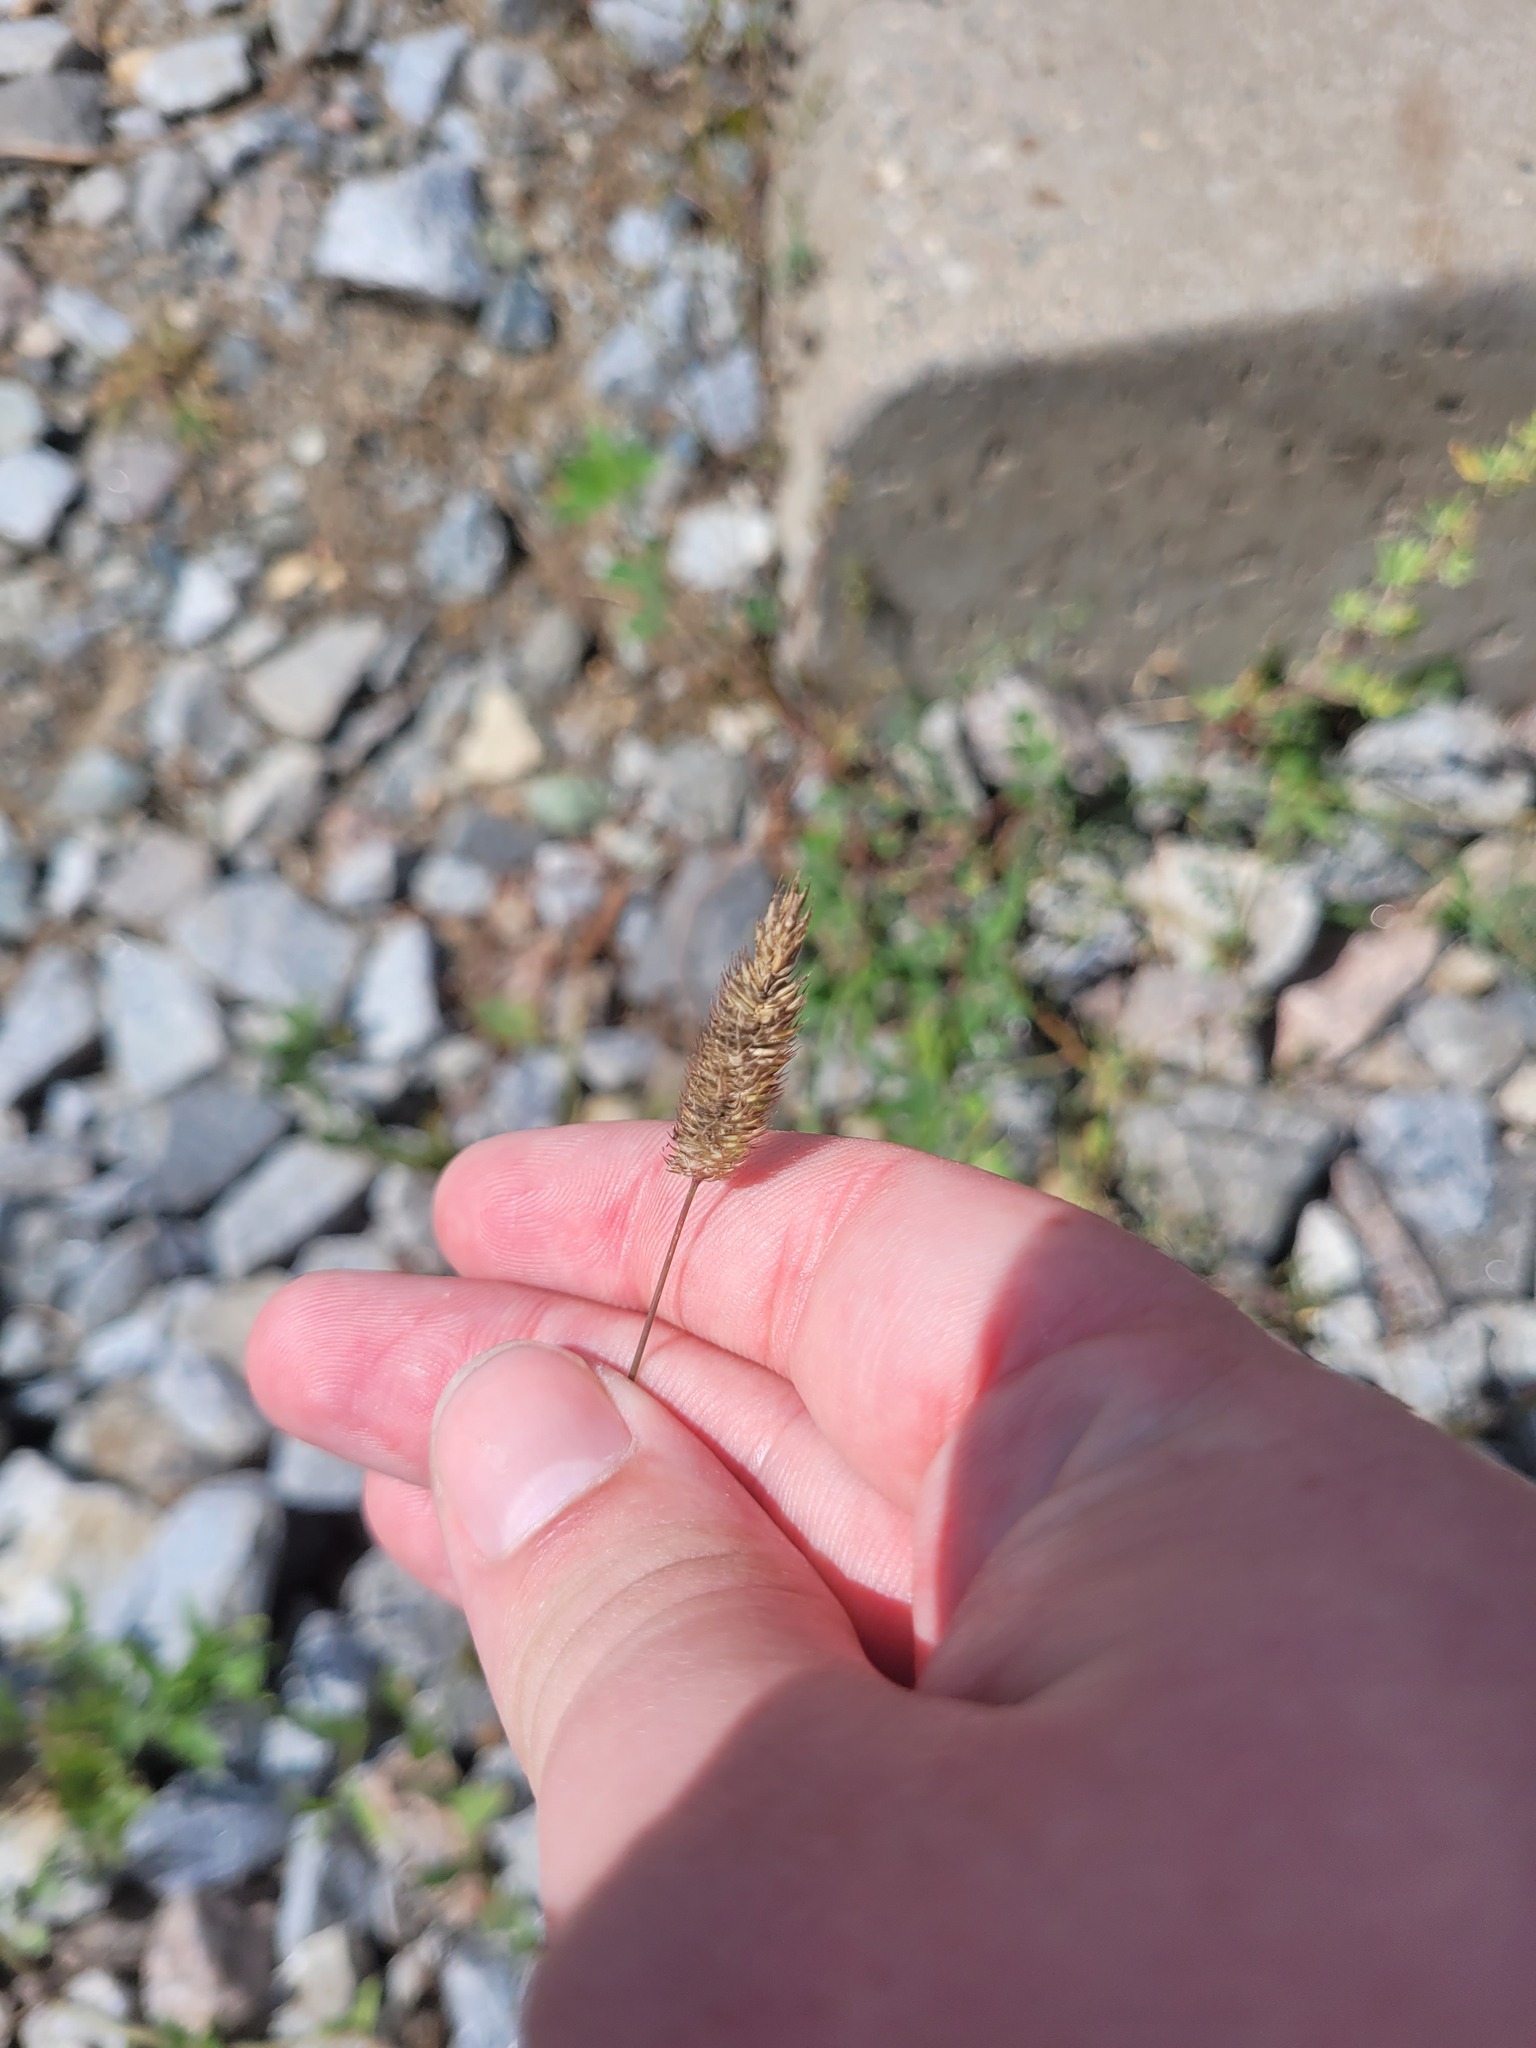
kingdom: Plantae
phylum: Tracheophyta
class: Liliopsida
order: Poales
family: Poaceae
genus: Phleum
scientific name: Phleum pratense
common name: Timothy grass
